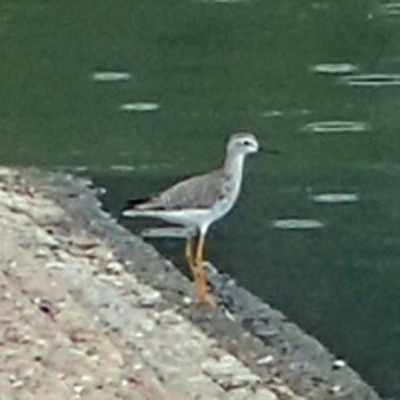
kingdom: Animalia
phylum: Chordata
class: Aves
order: Charadriiformes
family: Scolopacidae
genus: Tringa
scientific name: Tringa flavipes
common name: Lesser yellowlegs
